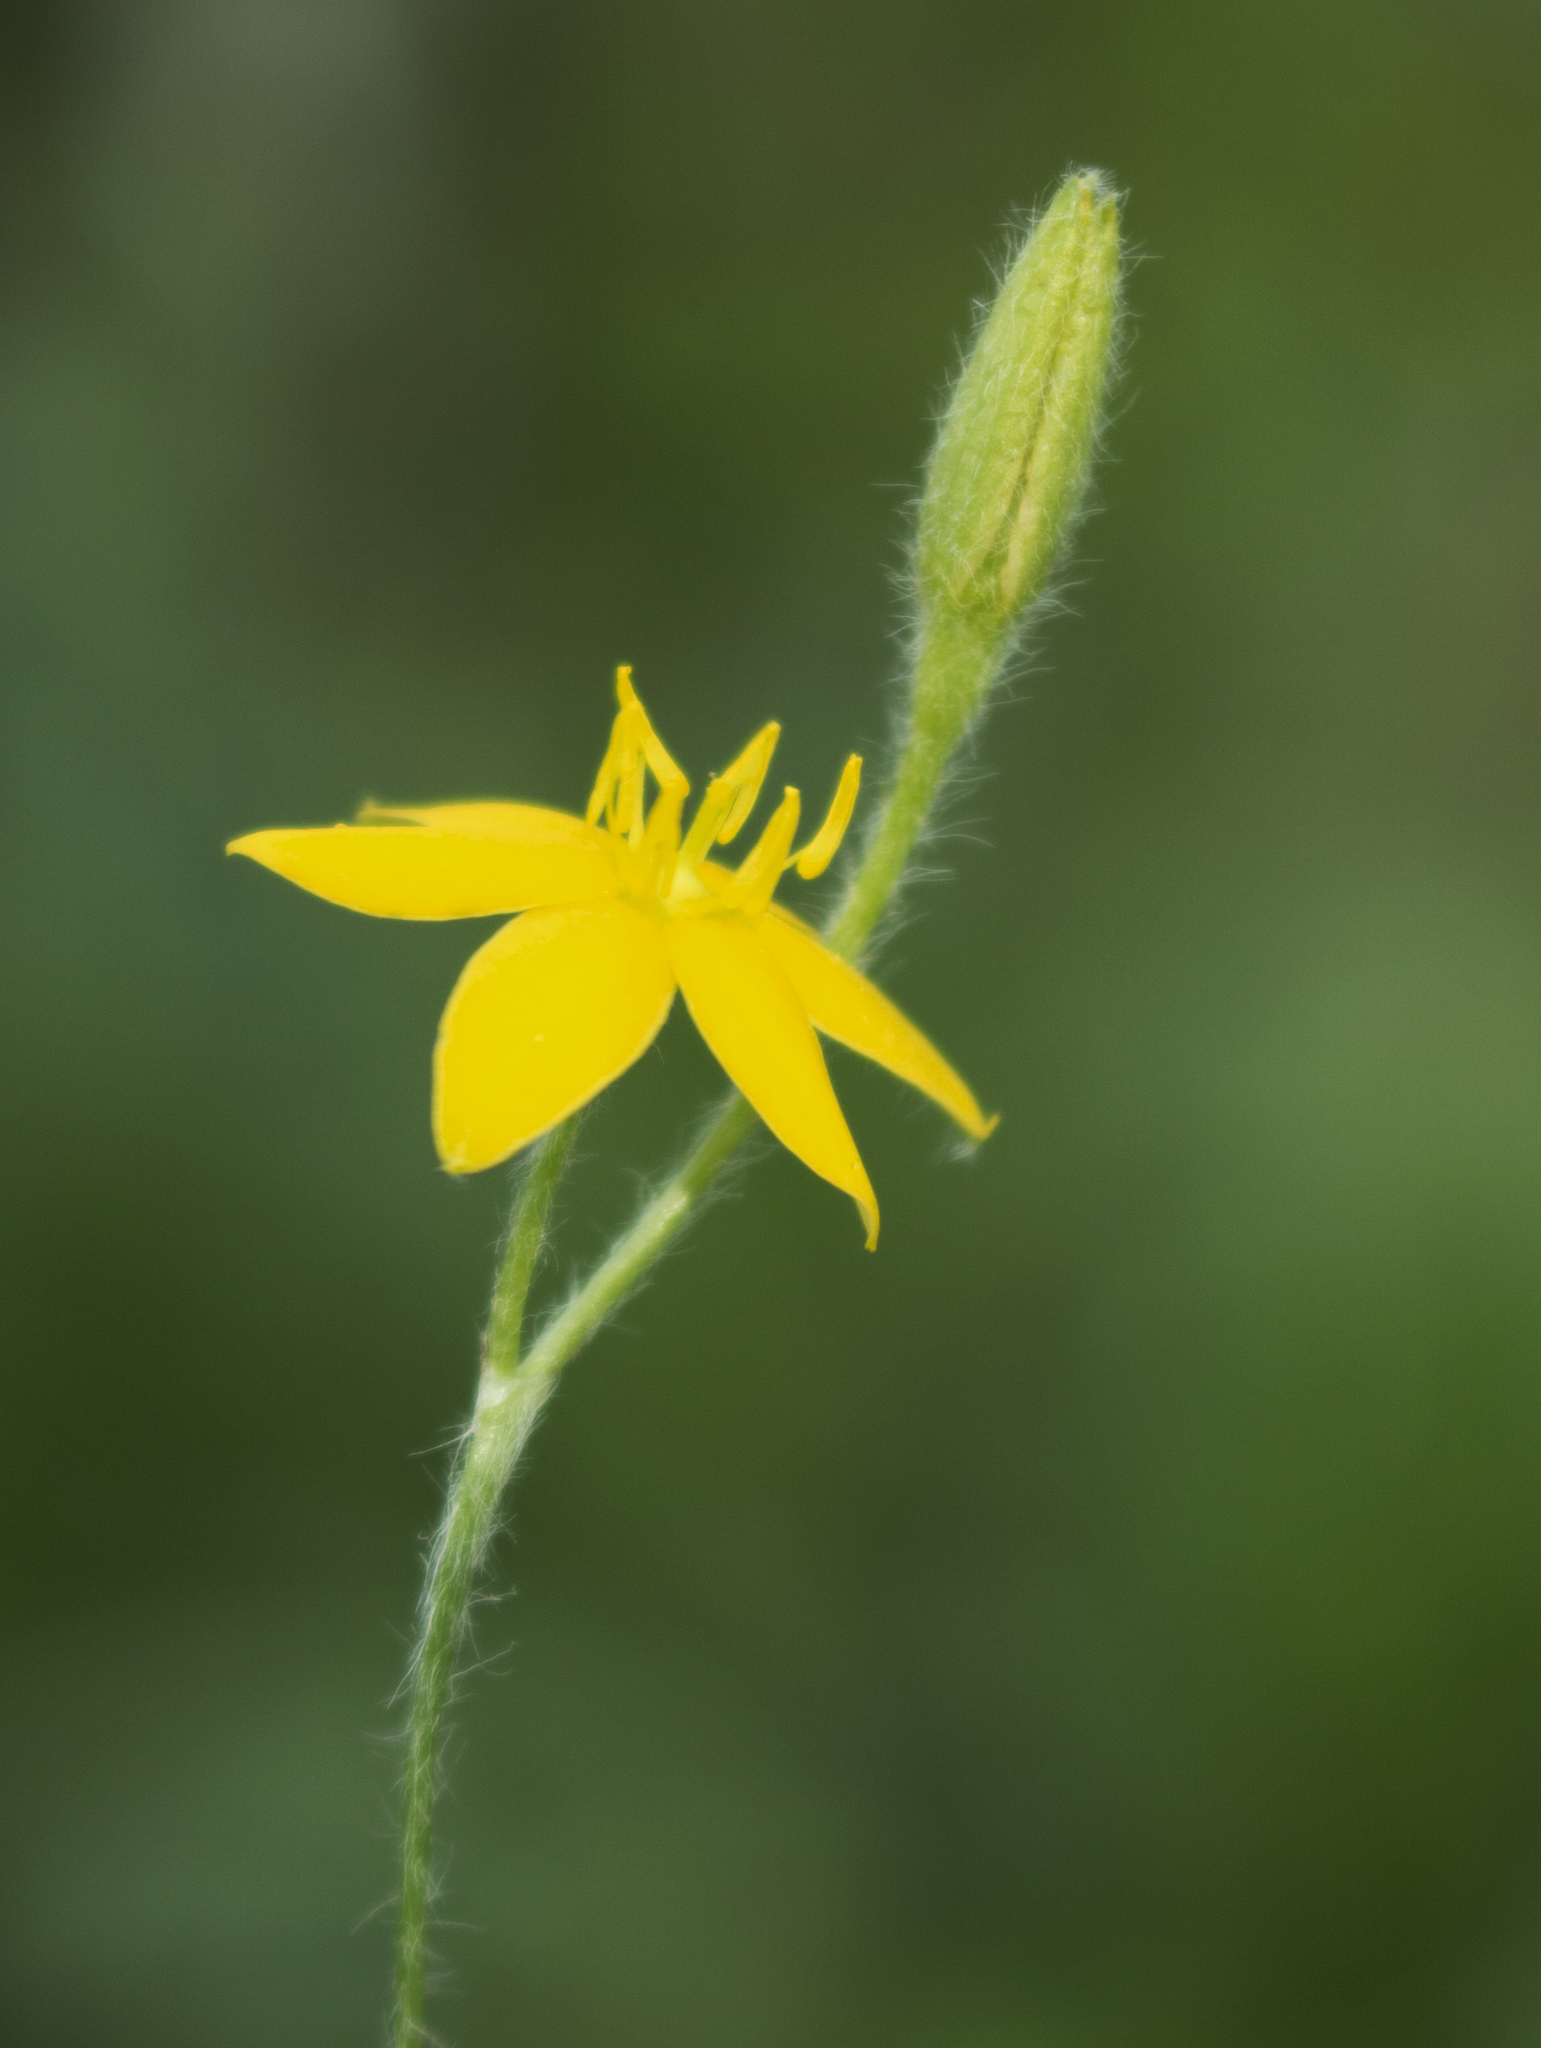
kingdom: Plantae
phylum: Tracheophyta
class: Liliopsida
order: Asparagales
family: Hypoxidaceae
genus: Hypoxis
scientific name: Hypoxis hirsuta
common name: Common goldstar
